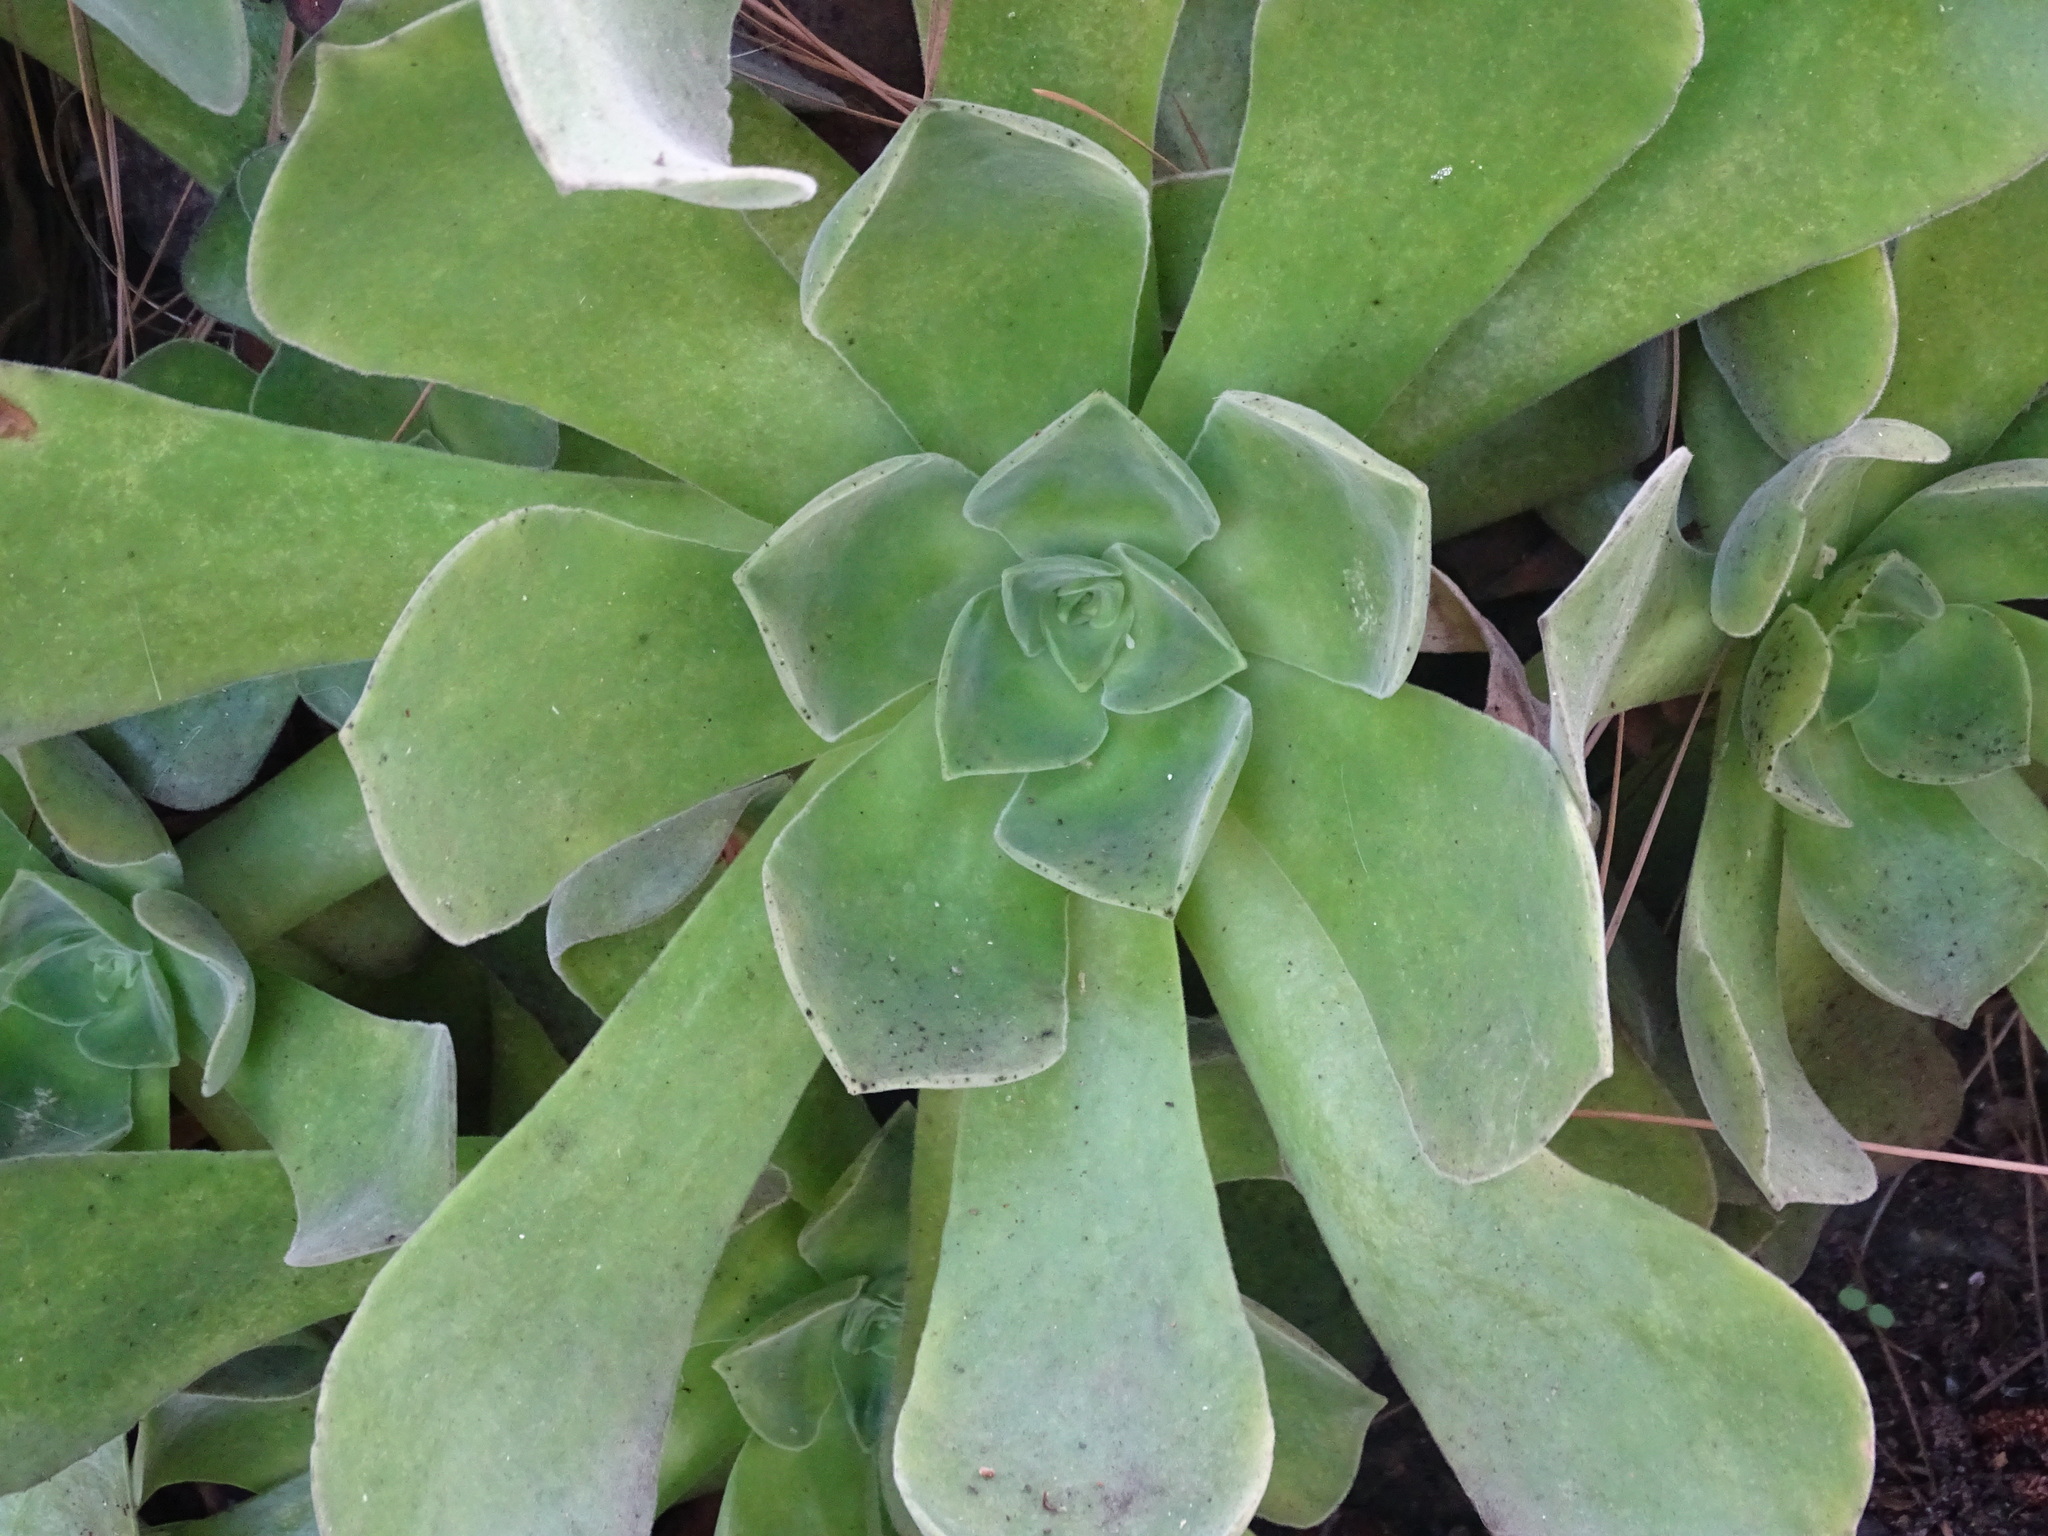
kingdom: Plantae
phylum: Tracheophyta
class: Magnoliopsida
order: Saxifragales
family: Crassulaceae
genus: Aeonium
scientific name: Aeonium canariense
